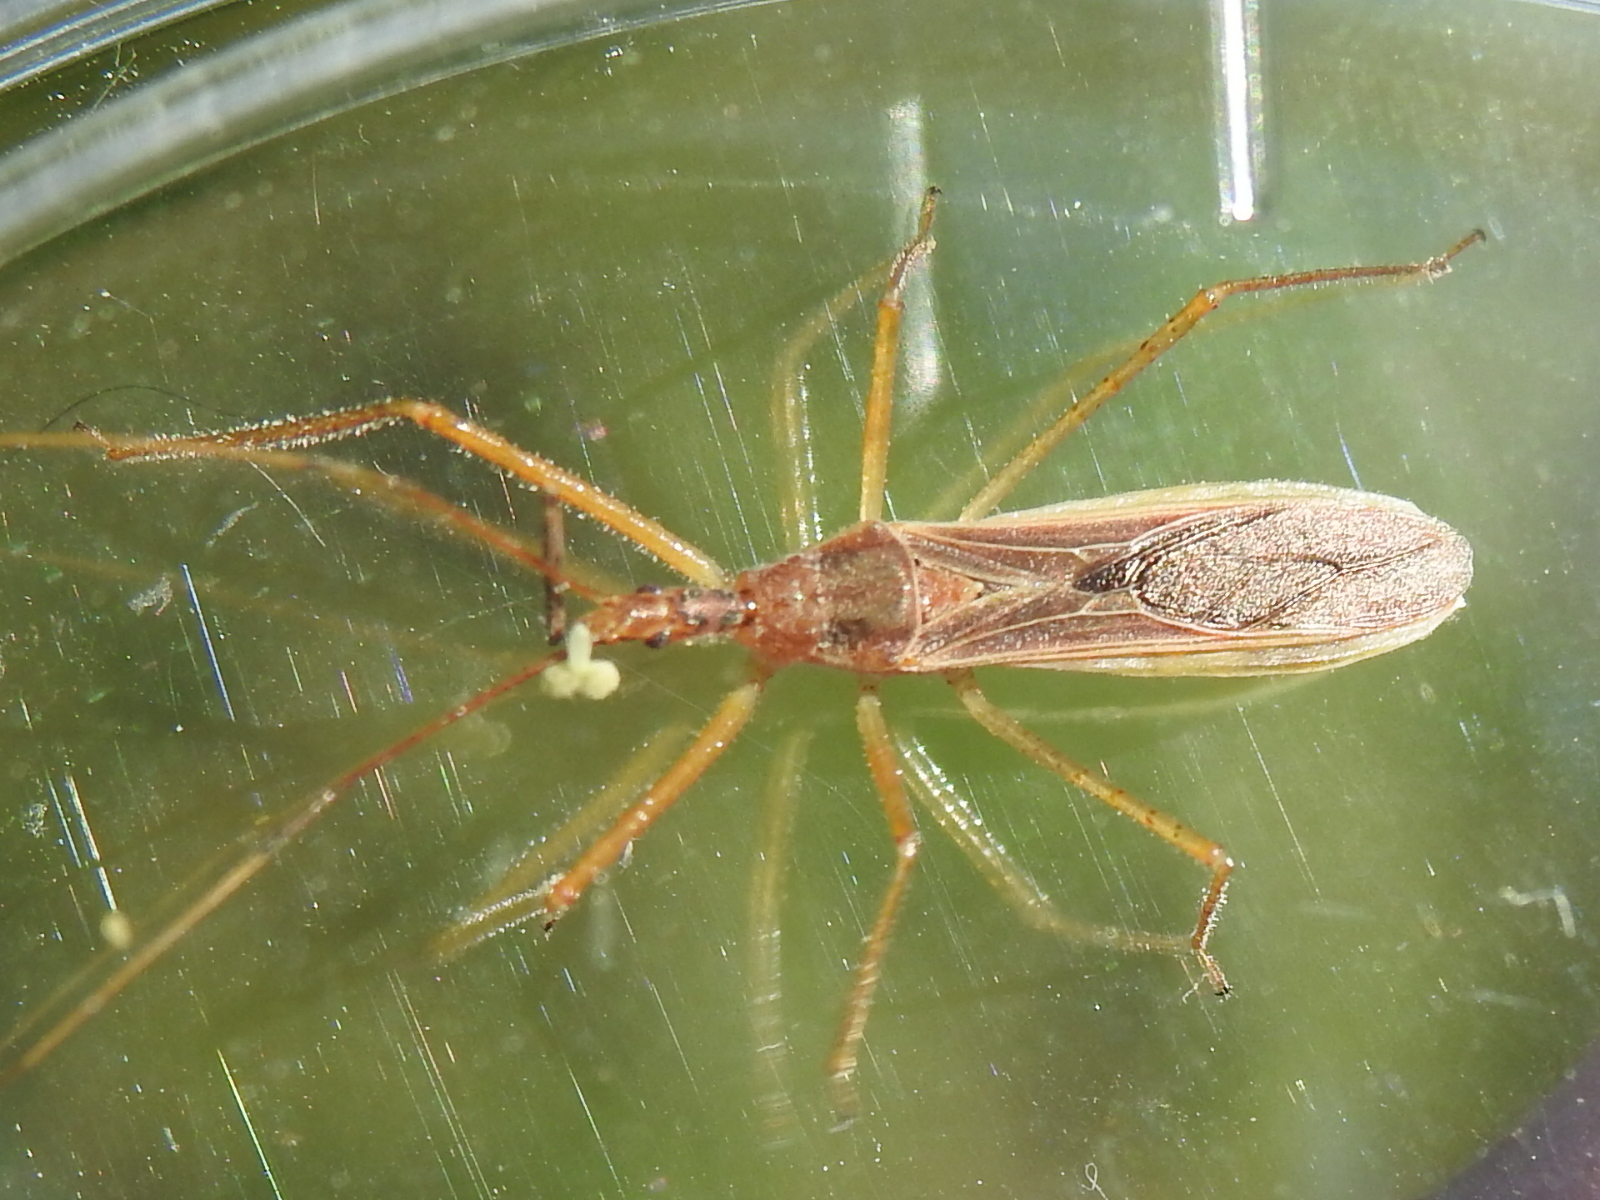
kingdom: Animalia
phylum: Arthropoda
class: Insecta
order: Hemiptera
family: Reduviidae
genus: Zelus
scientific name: Zelus cervicalis
